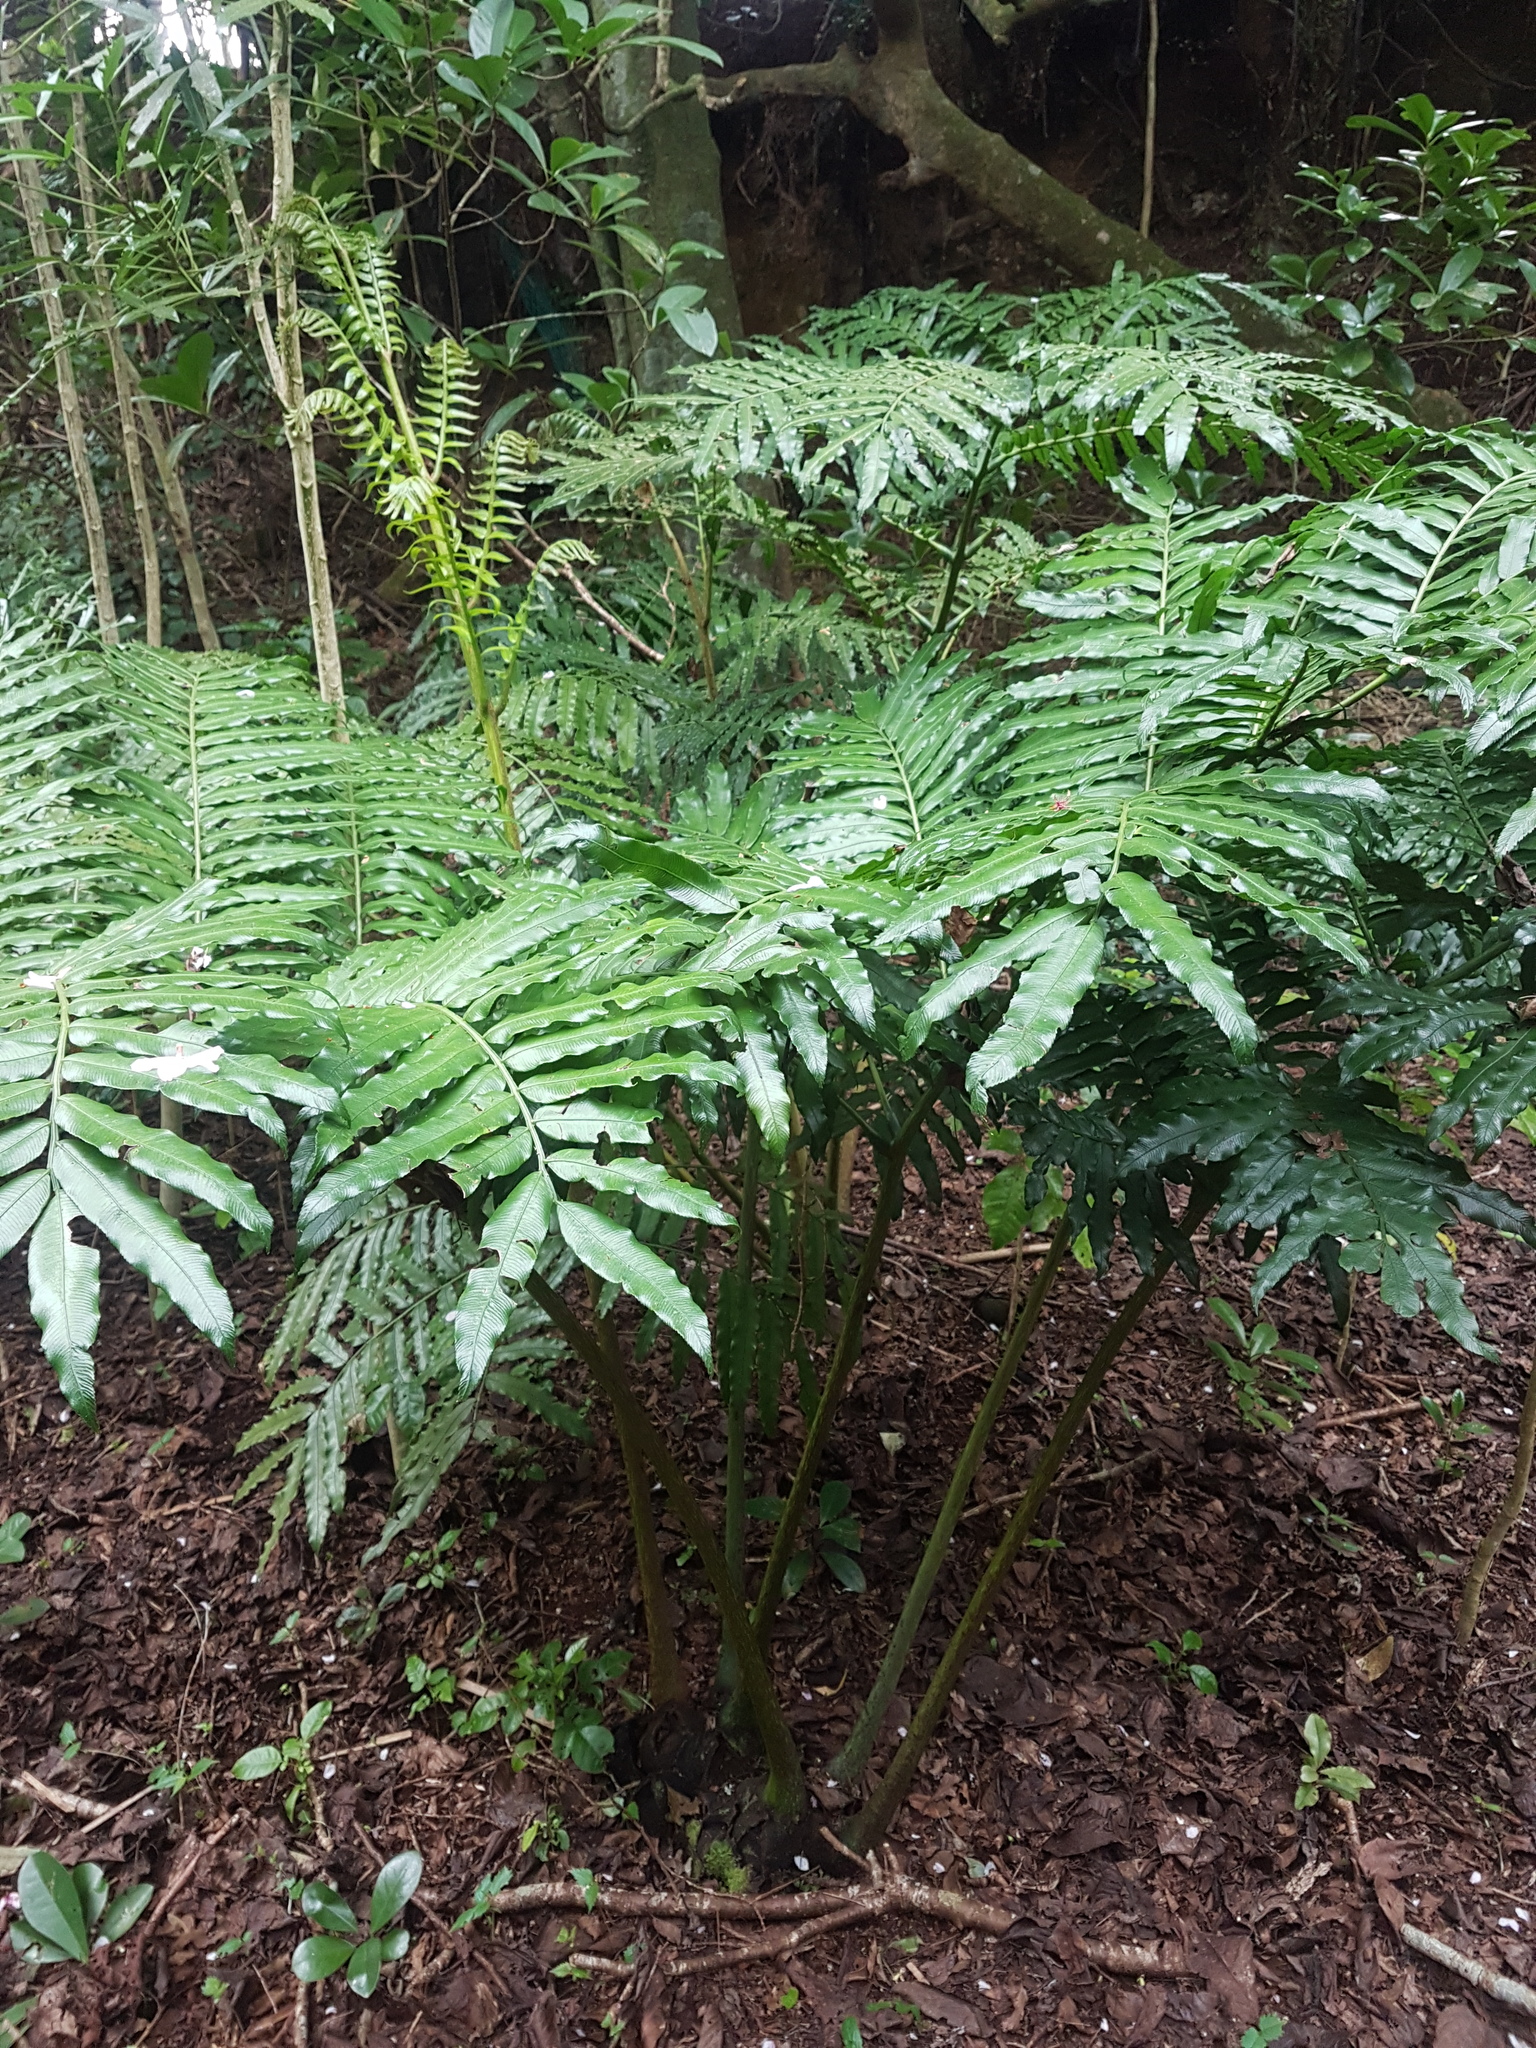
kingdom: Plantae
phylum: Tracheophyta
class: Polypodiopsida
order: Marattiales
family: Marattiaceae
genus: Ptisana
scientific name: Ptisana salicina
